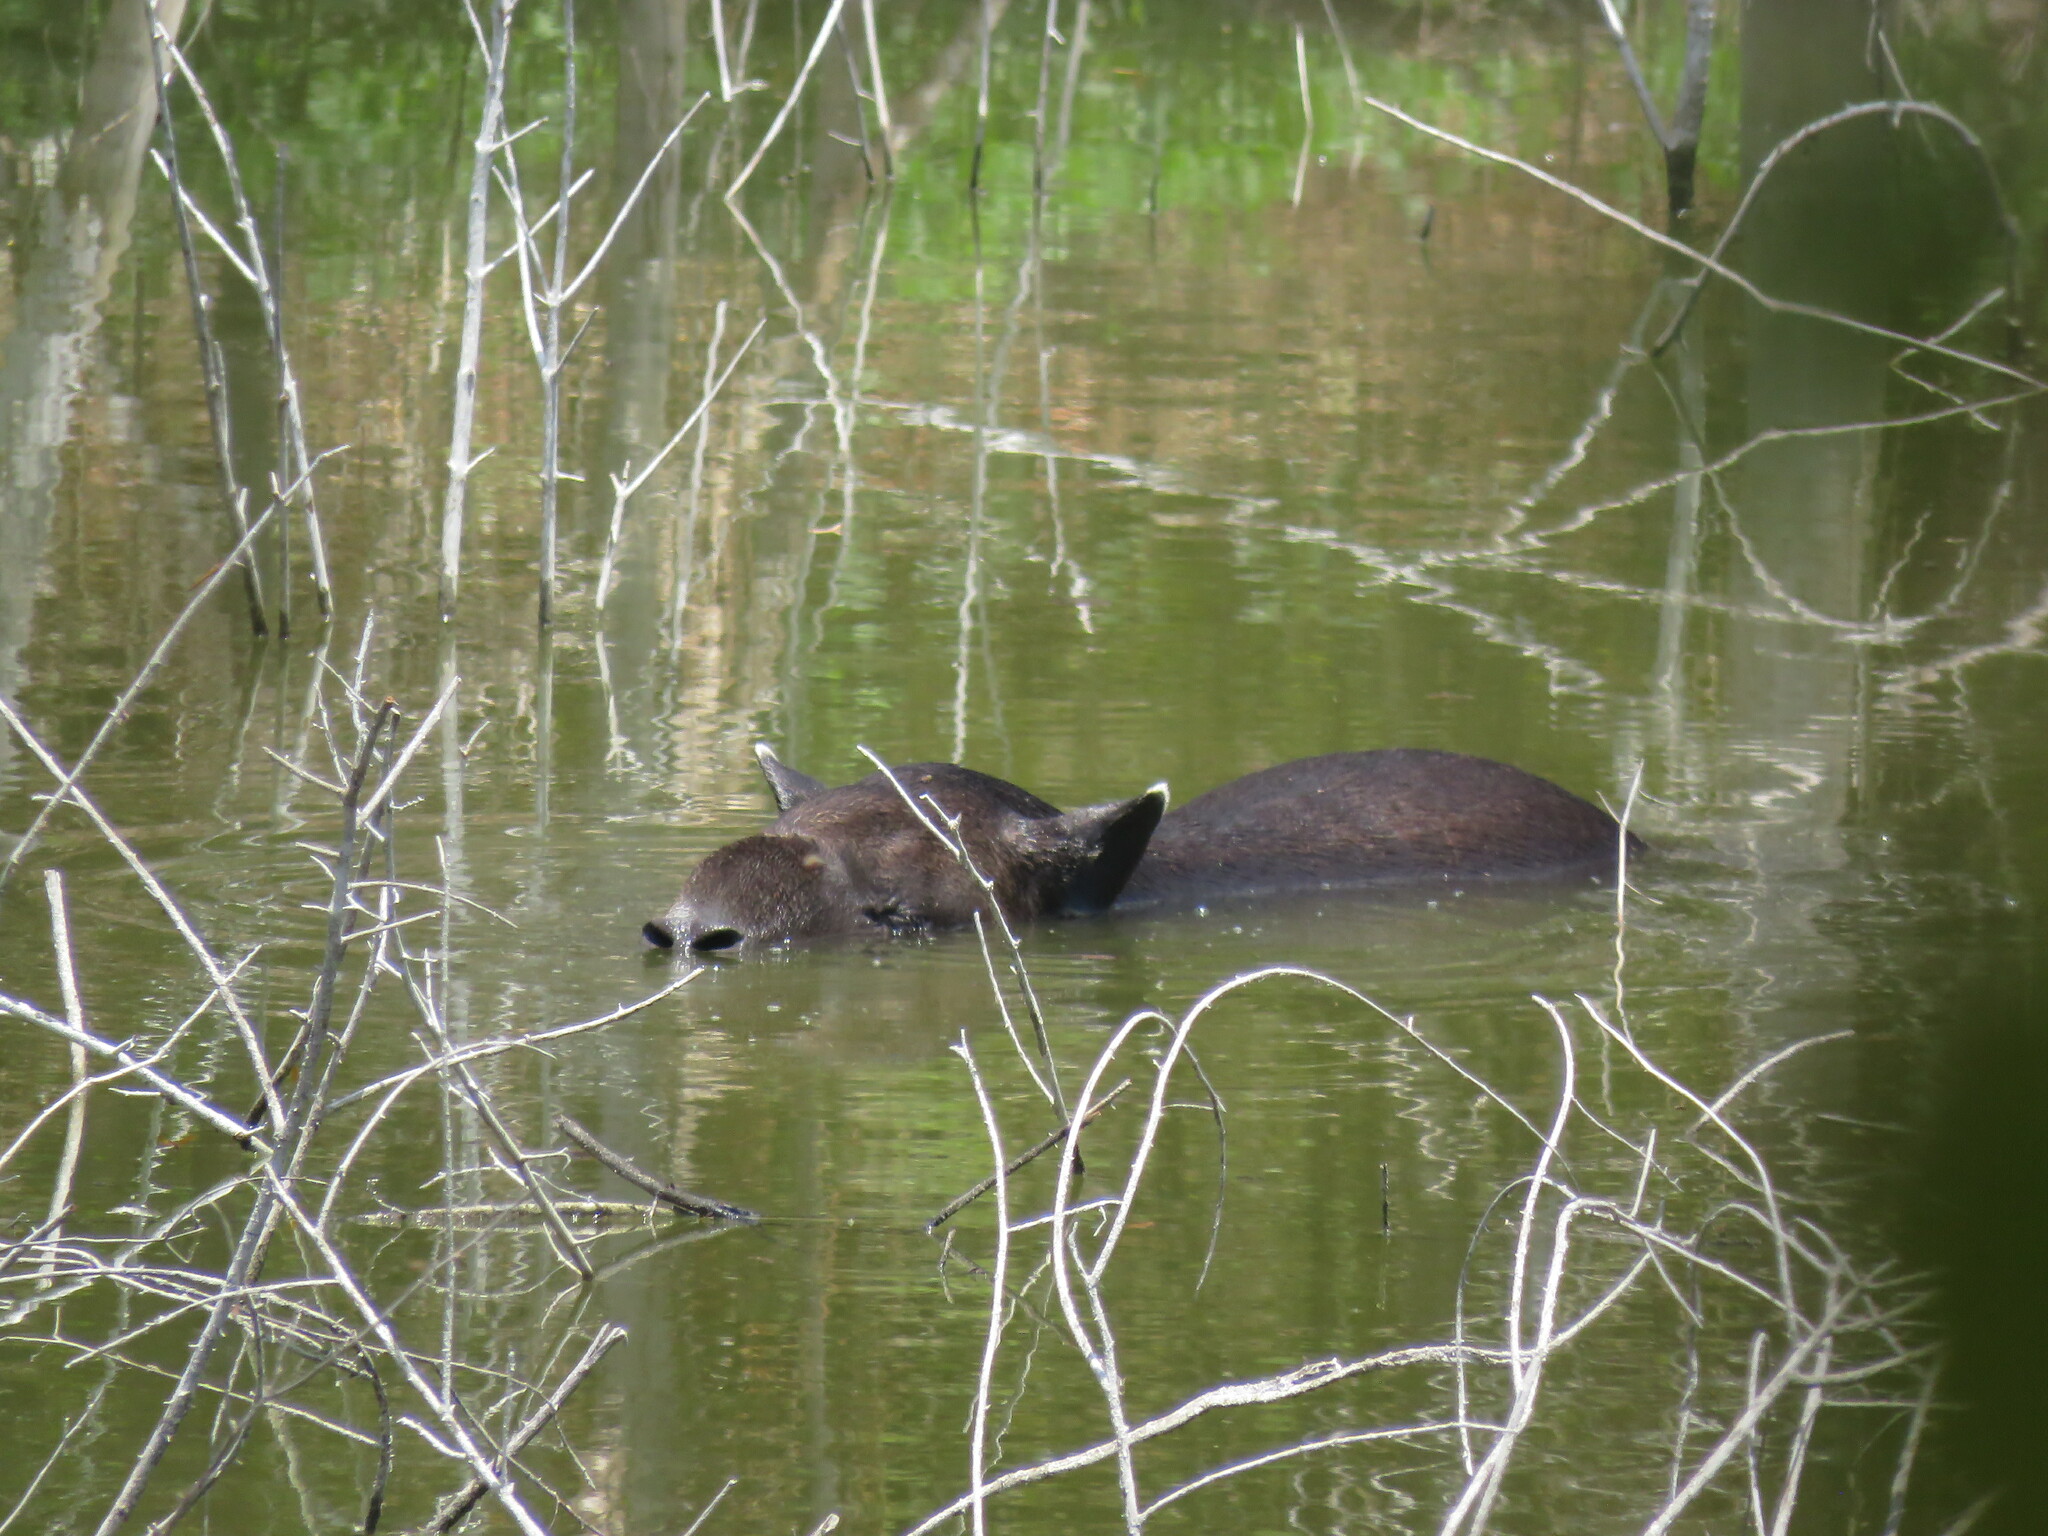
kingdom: Animalia
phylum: Chordata
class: Mammalia
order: Perissodactyla
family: Tapiridae
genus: Tapirella
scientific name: Tapirella bairdii
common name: Baird's tapir
